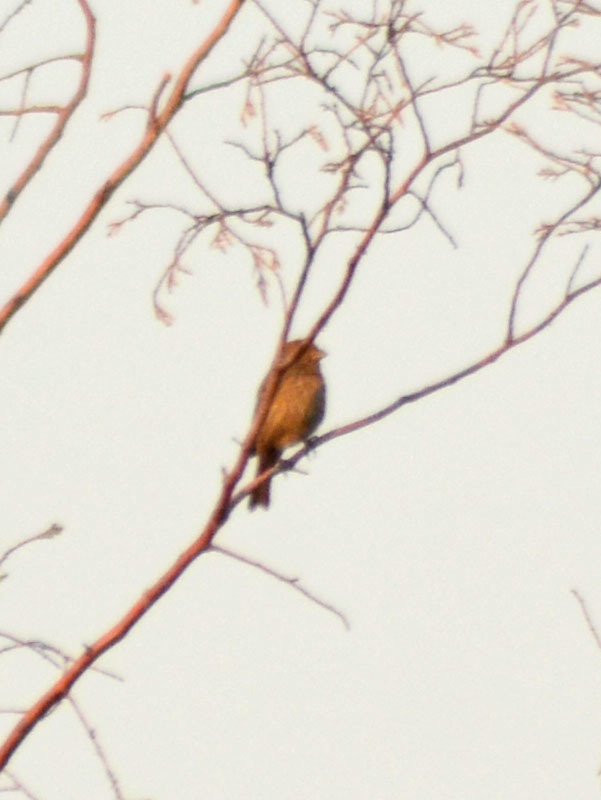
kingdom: Animalia
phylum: Chordata
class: Aves
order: Passeriformes
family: Fringillidae
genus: Haemorhous
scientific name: Haemorhous mexicanus
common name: House finch
